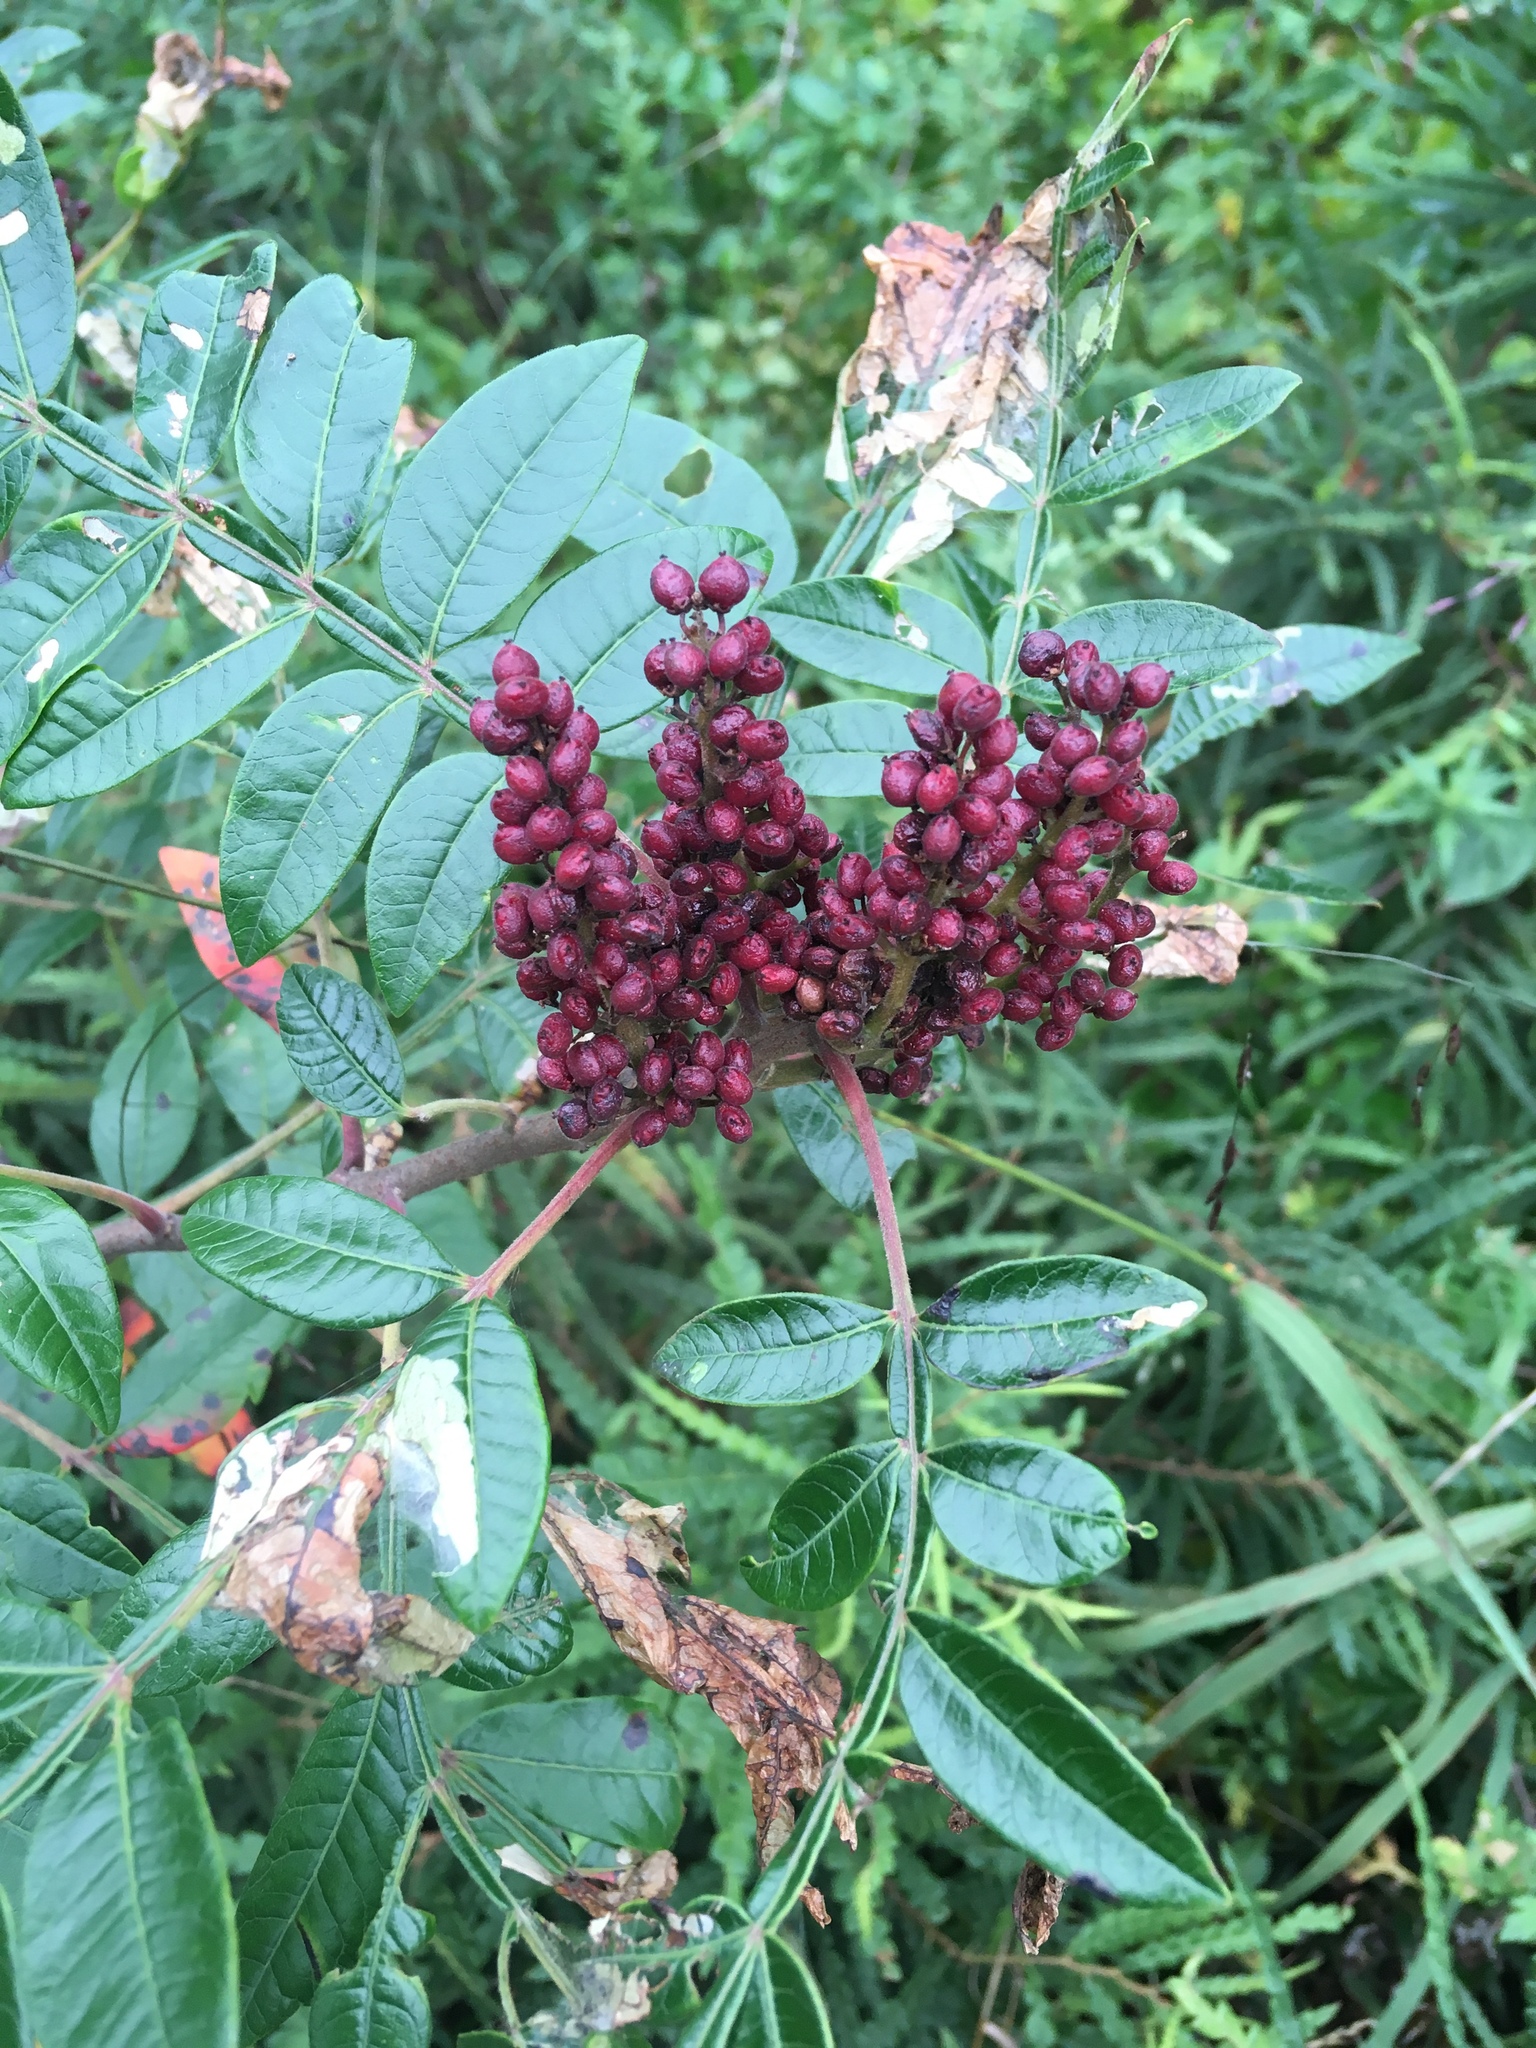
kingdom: Plantae
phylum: Tracheophyta
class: Magnoliopsida
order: Sapindales
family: Anacardiaceae
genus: Rhus
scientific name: Rhus copallina
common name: Shining sumac
